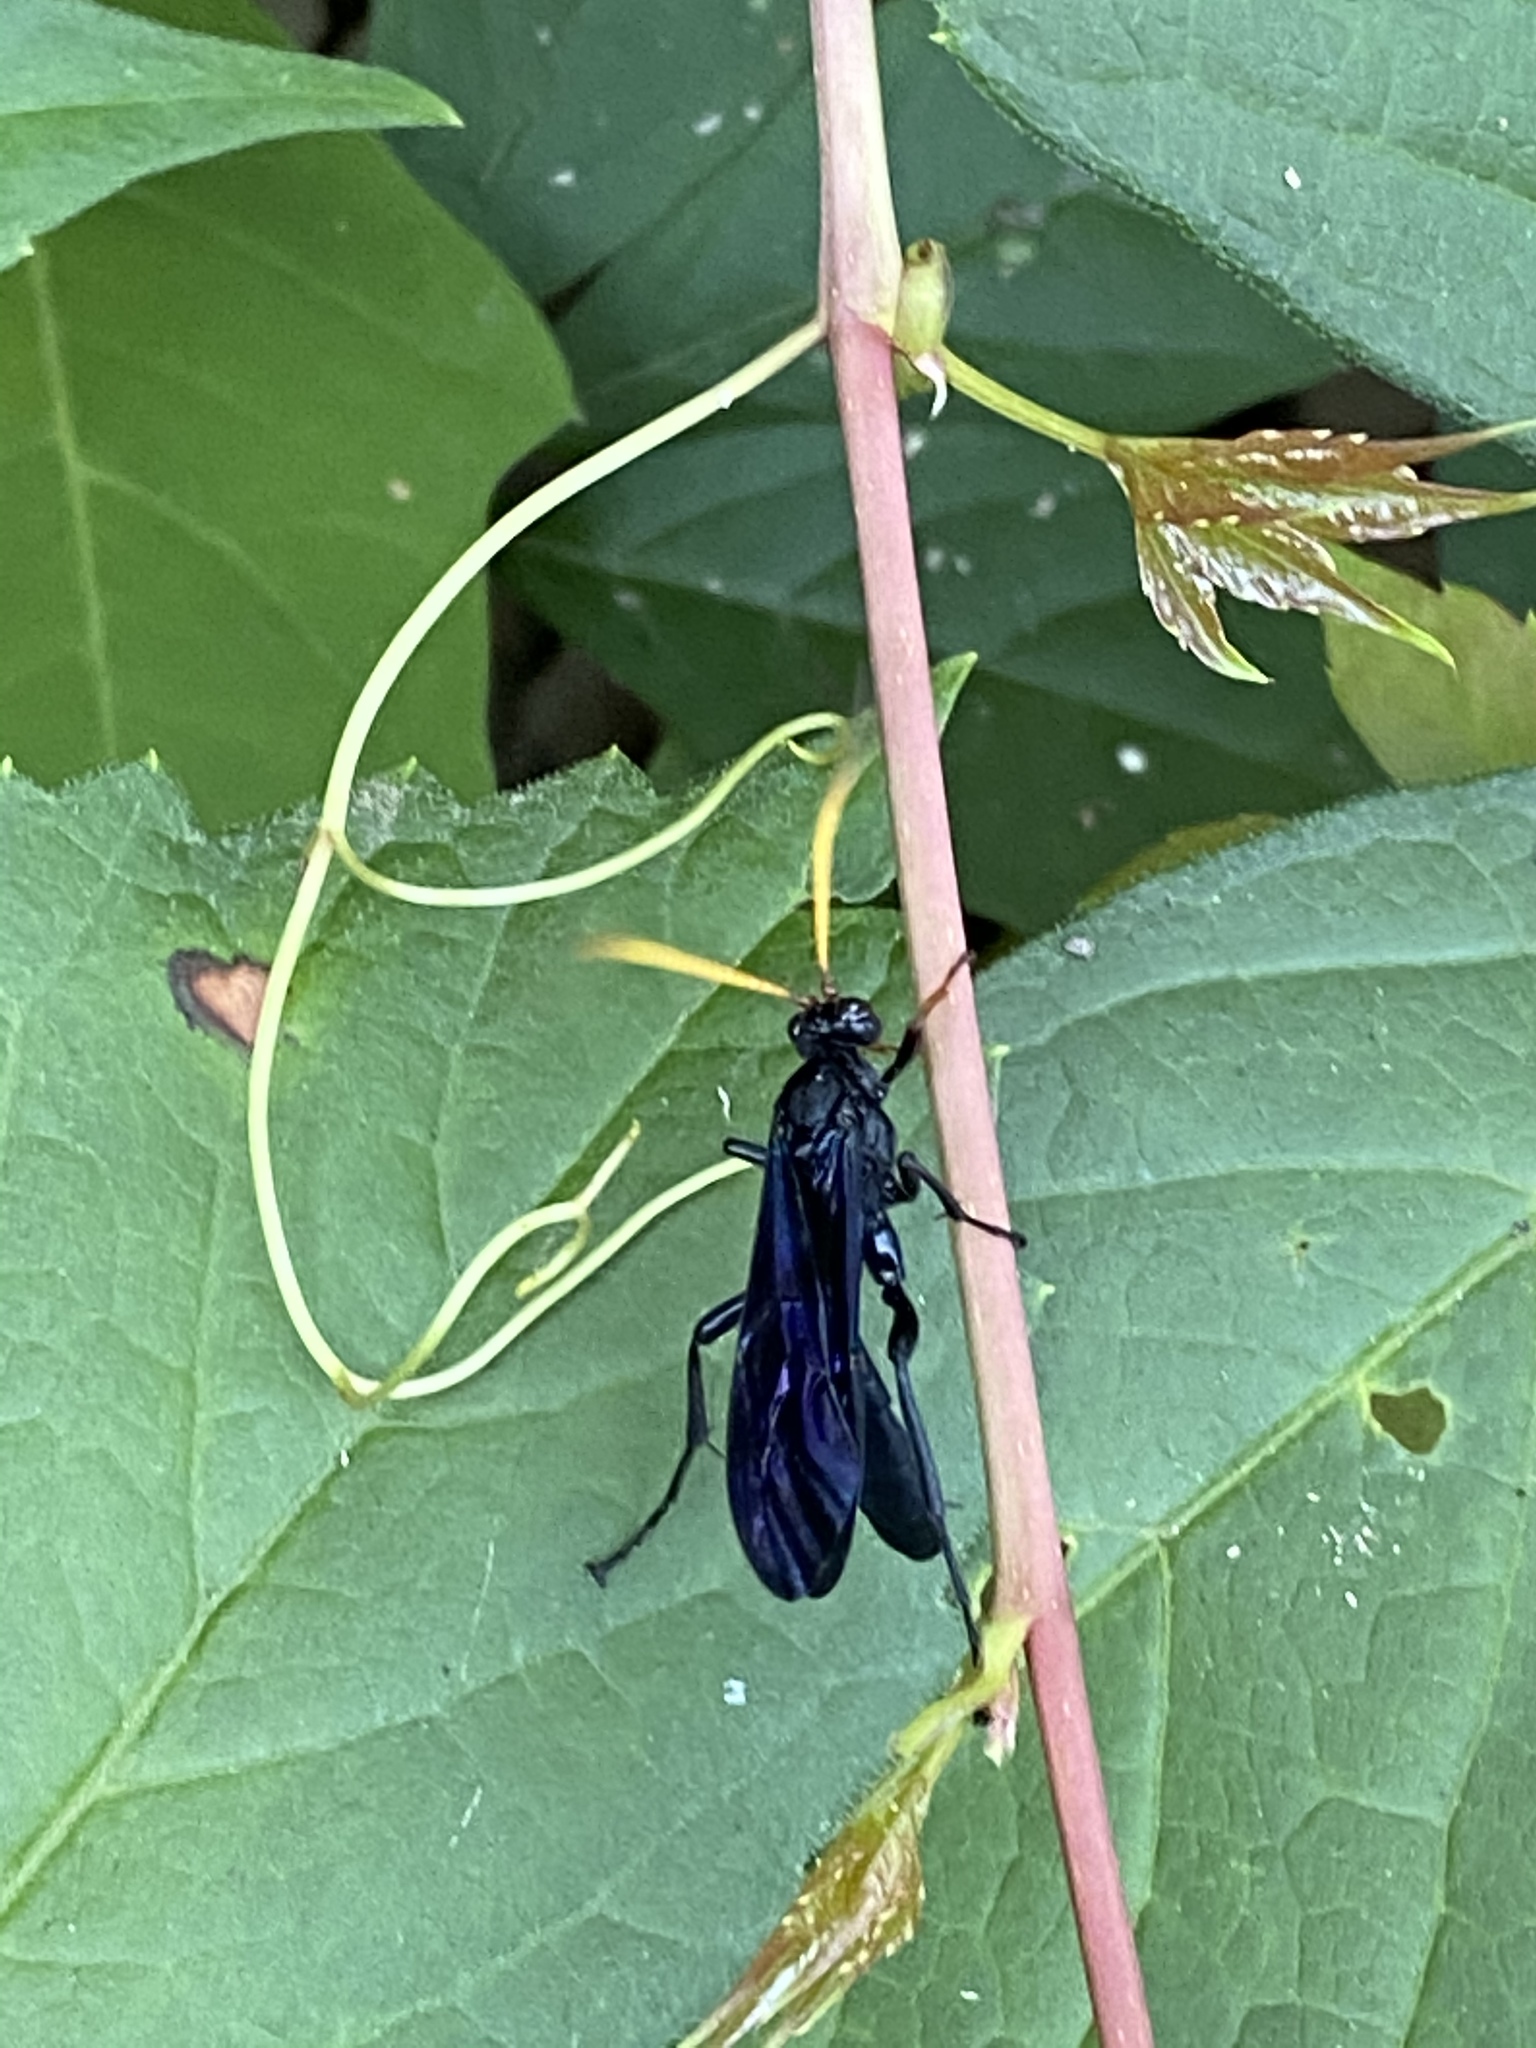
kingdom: Animalia
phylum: Arthropoda
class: Insecta
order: Hymenoptera
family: Ichneumonidae
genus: Gnamptopelta
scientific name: Gnamptopelta obsidianator
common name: Bent-shielded besieger wasp
